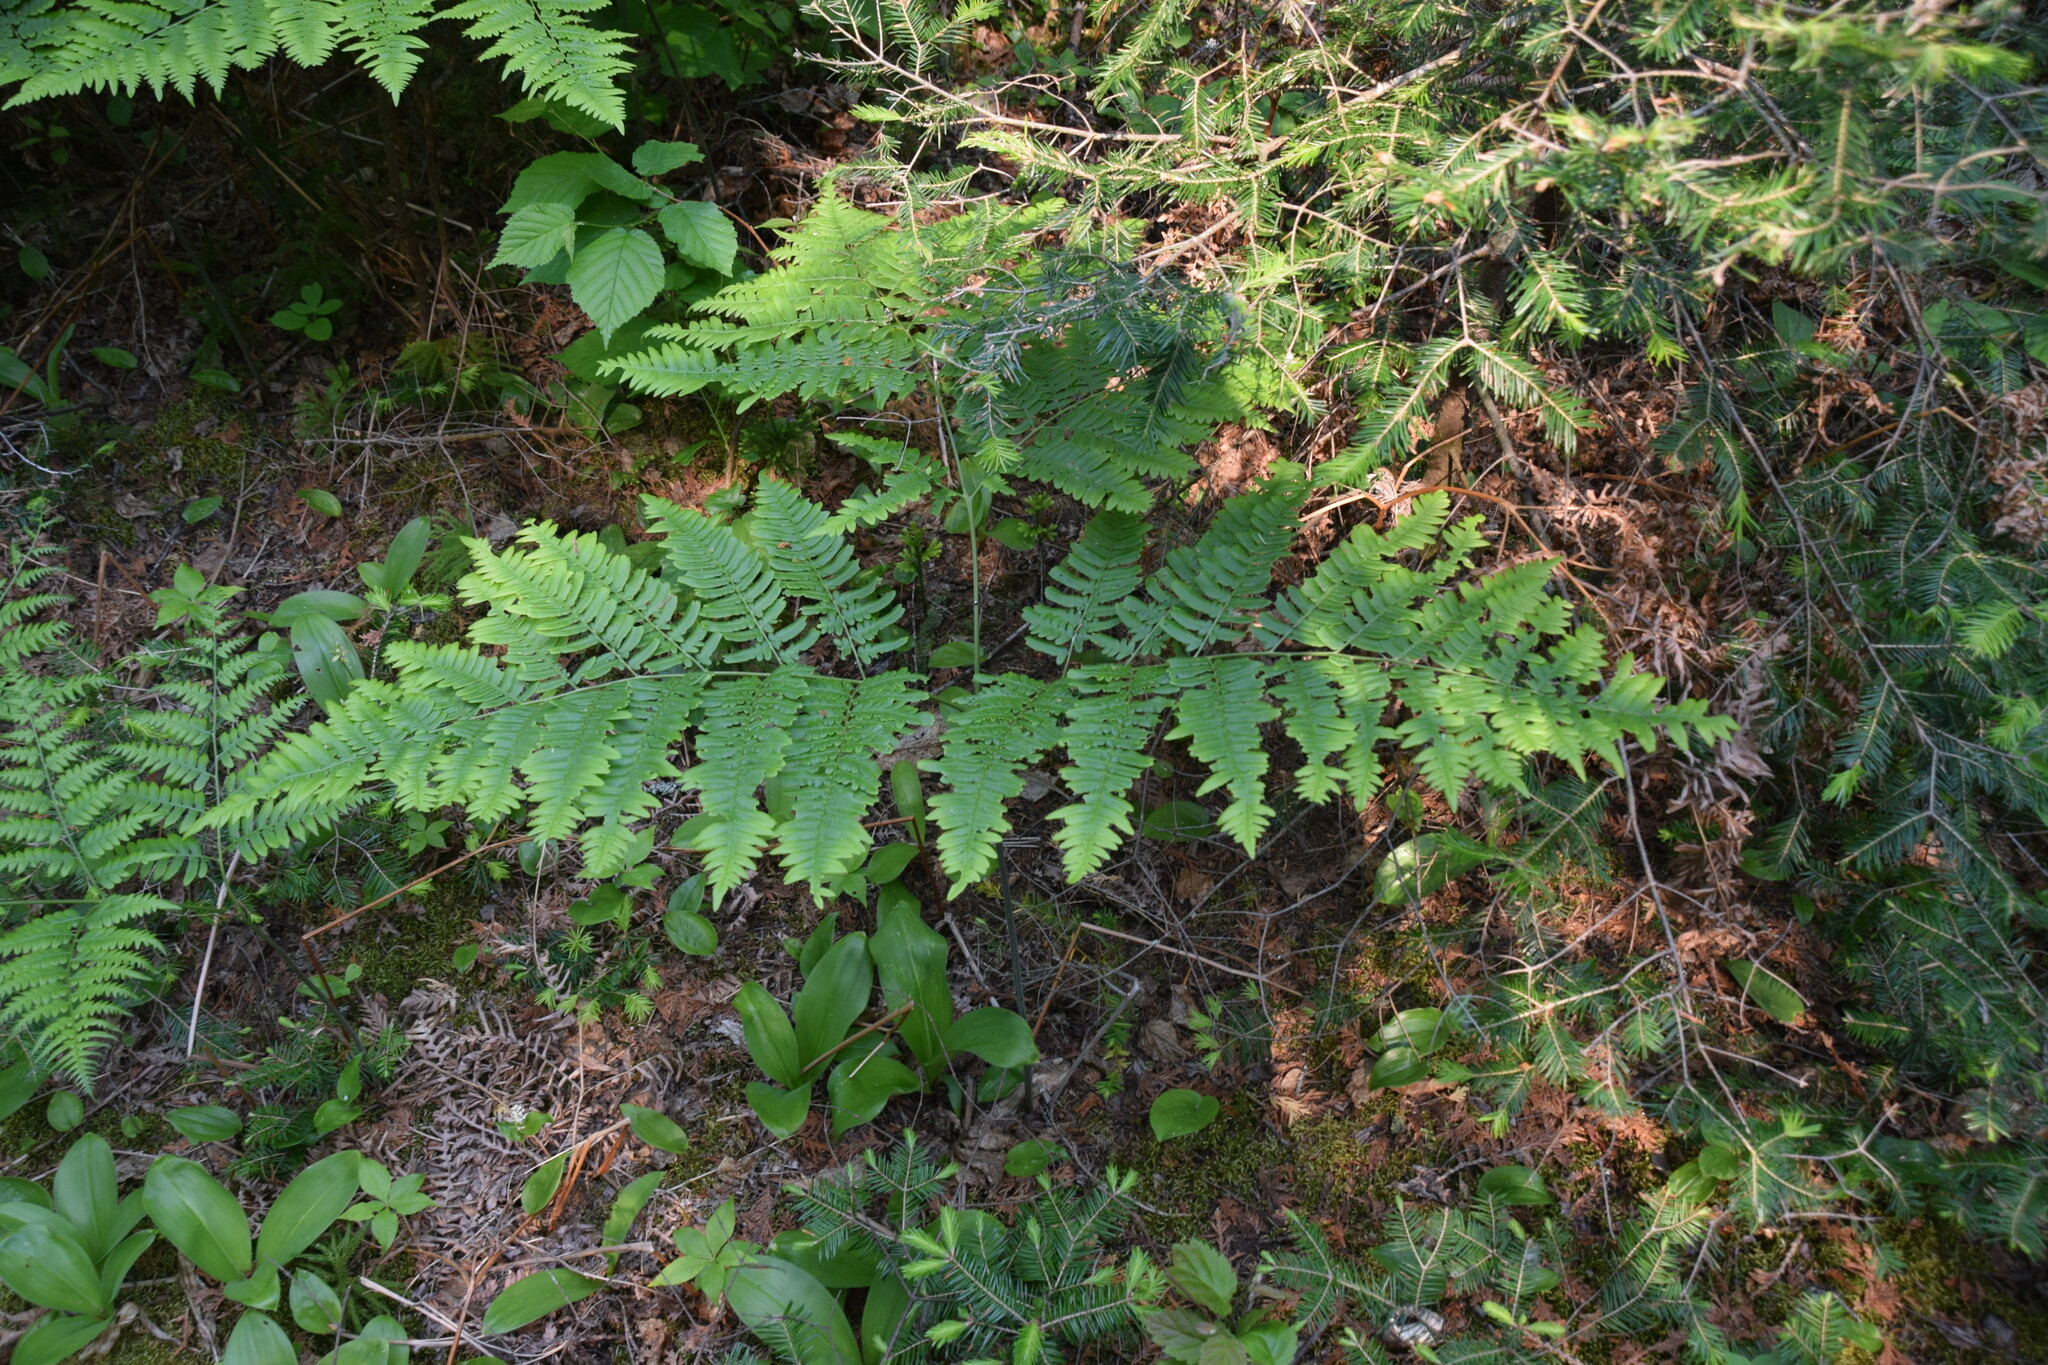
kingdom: Plantae
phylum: Tracheophyta
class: Polypodiopsida
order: Polypodiales
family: Dennstaedtiaceae
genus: Pteridium
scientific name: Pteridium aquilinum
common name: Bracken
